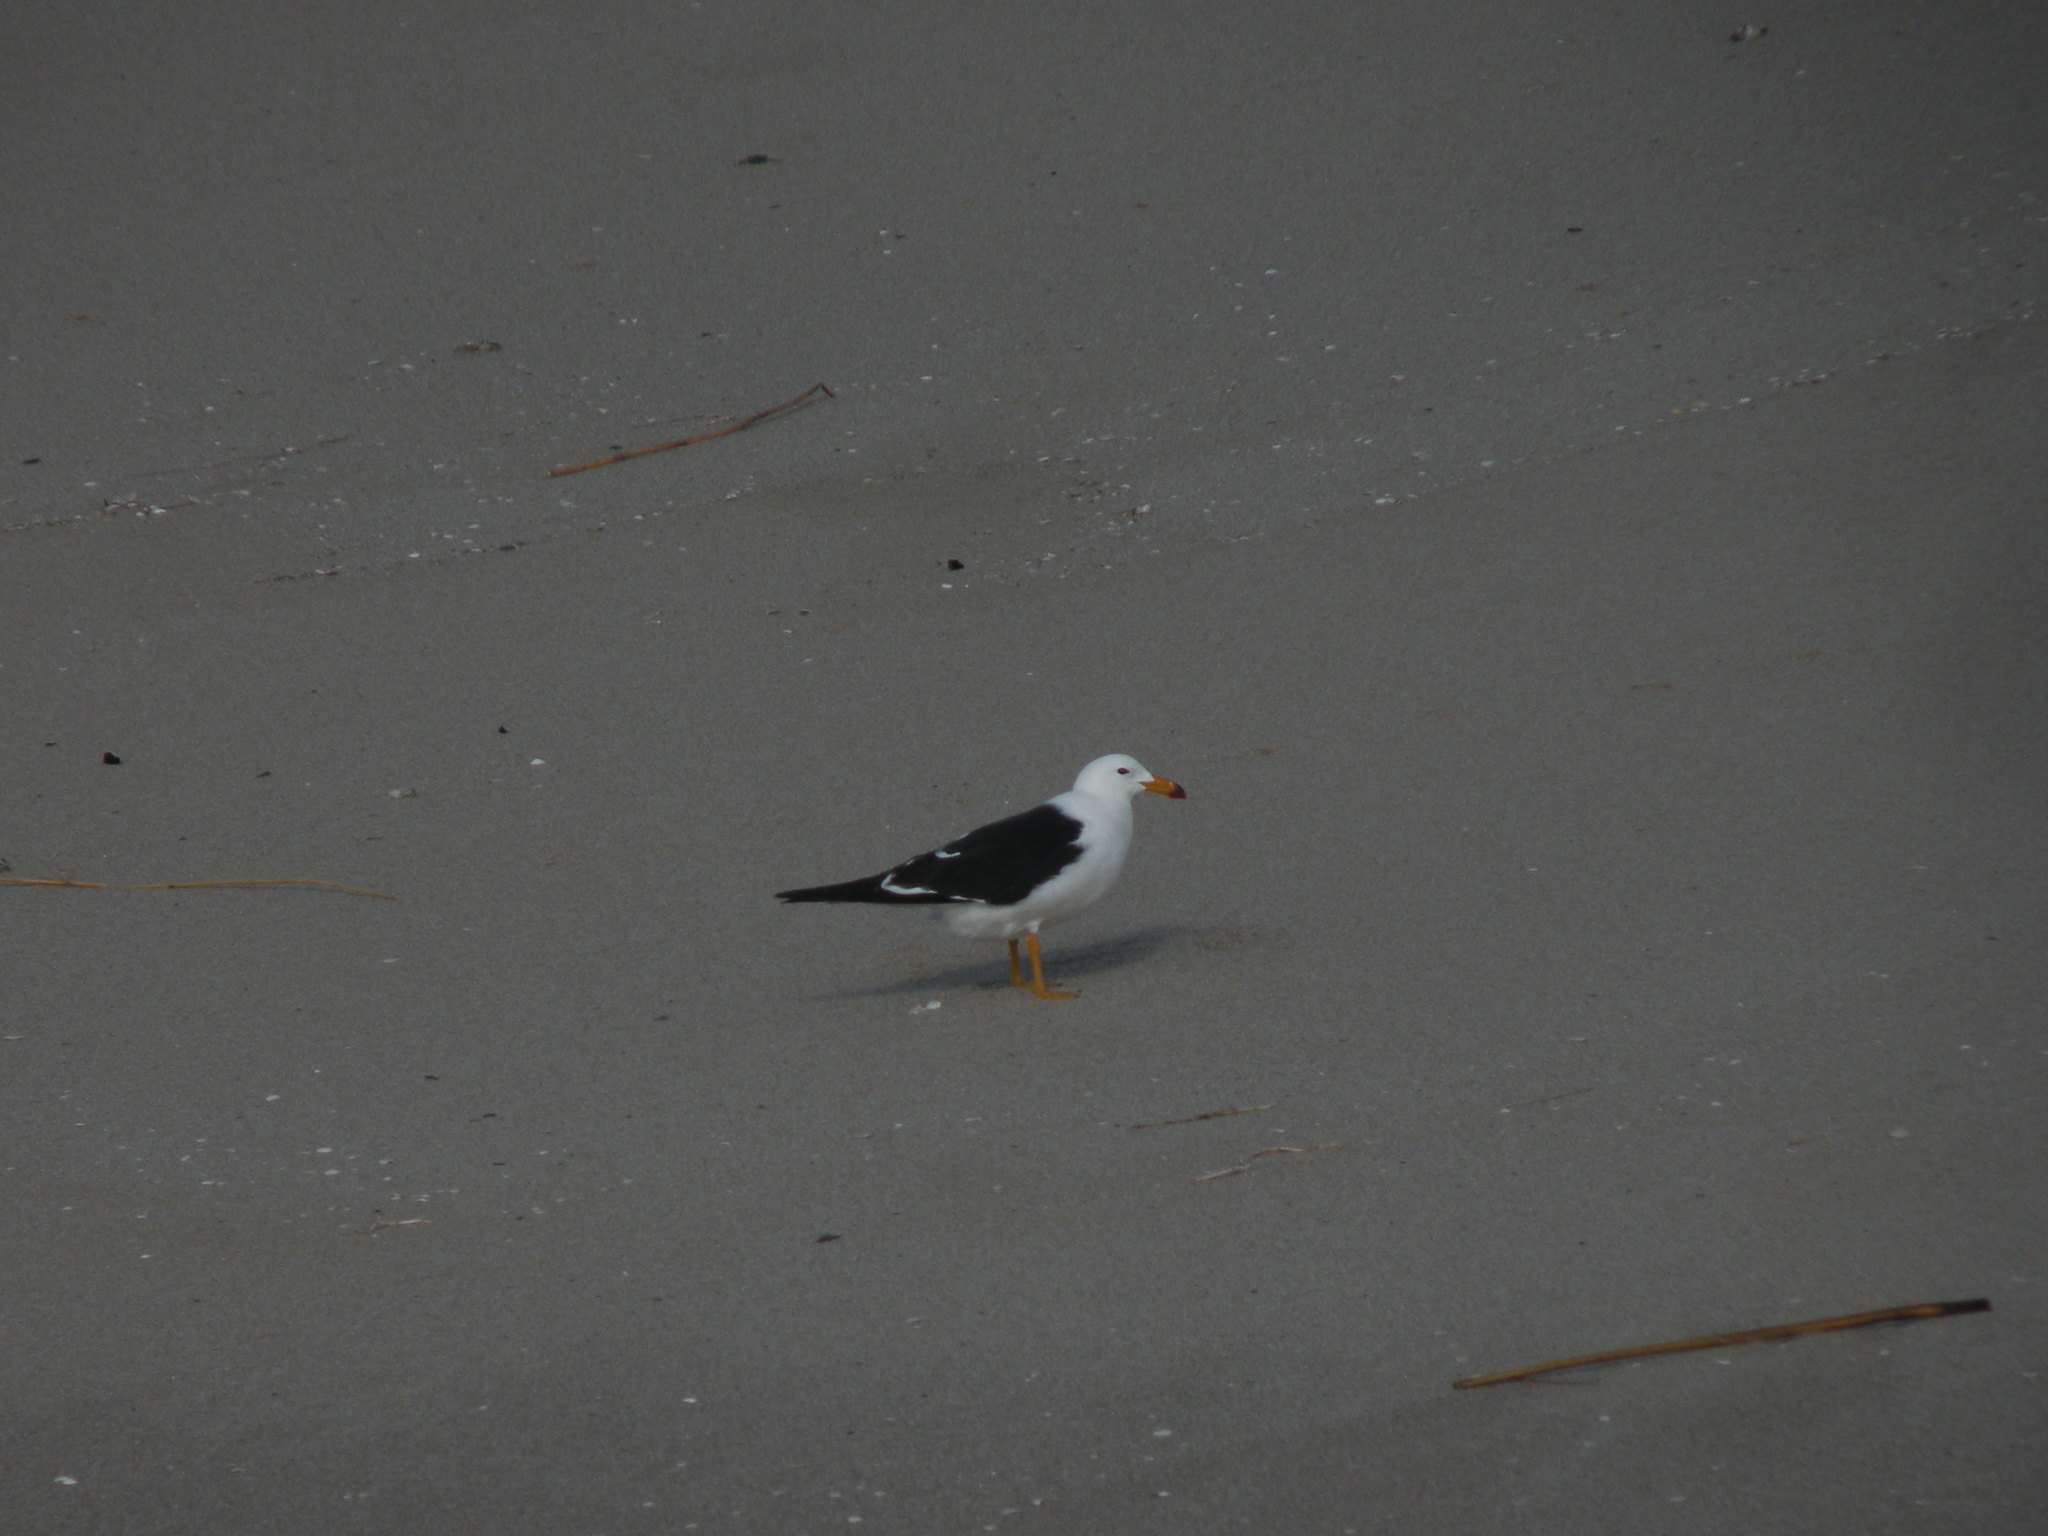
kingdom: Animalia
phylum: Chordata
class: Aves
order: Charadriiformes
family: Laridae
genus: Larus
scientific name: Larus atlanticus
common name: Olrog's gull
